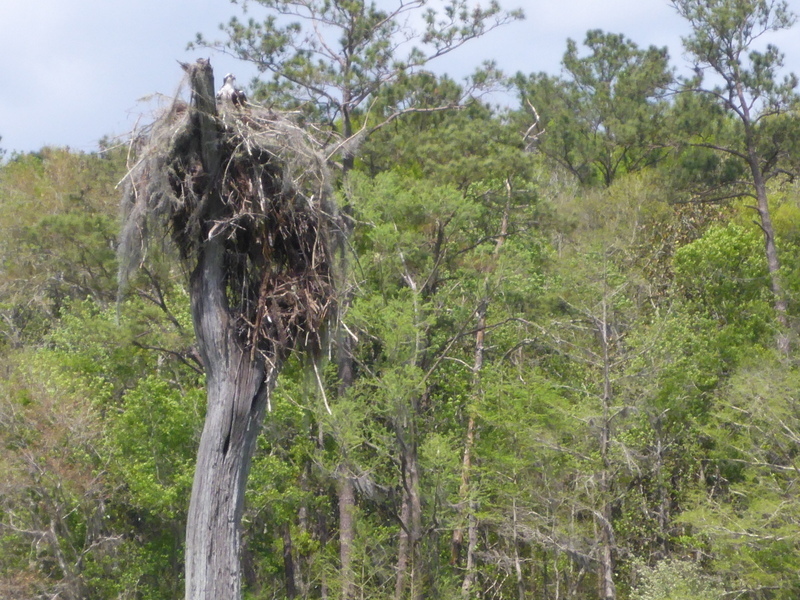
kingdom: Animalia
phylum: Chordata
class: Aves
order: Accipitriformes
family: Pandionidae
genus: Pandion
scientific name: Pandion haliaetus
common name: Osprey
